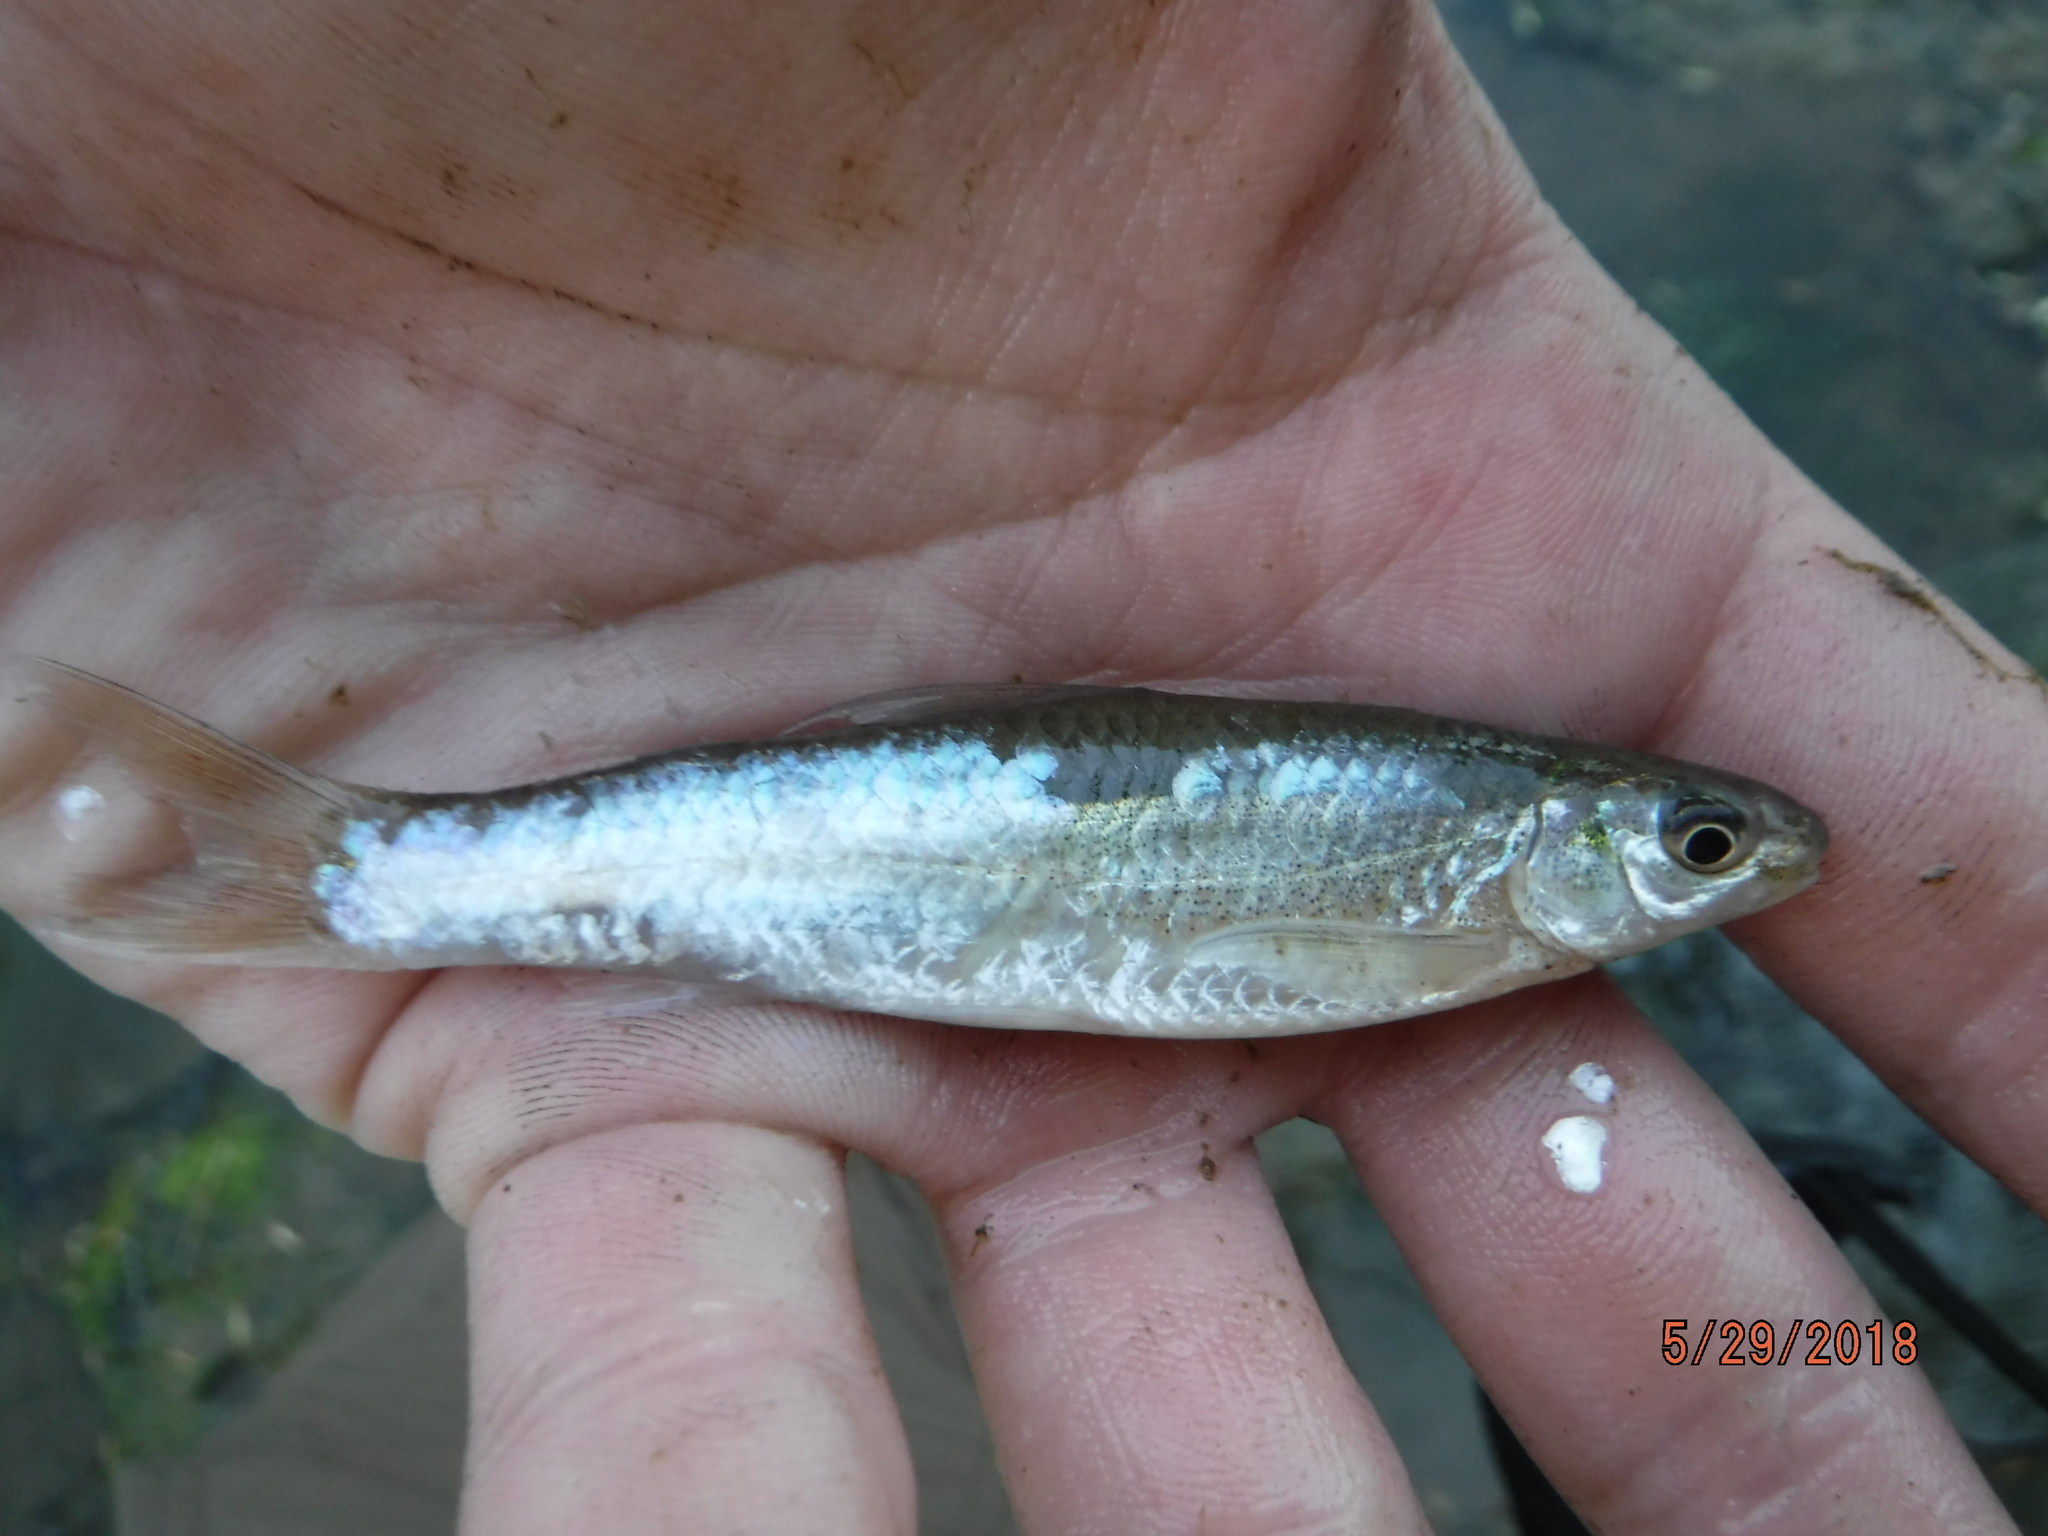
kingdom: Animalia
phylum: Chordata
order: Cypriniformes
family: Cyprinidae
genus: Hybognathus
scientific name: Hybognathus nuchalis
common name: Mississippi silvery minnow
